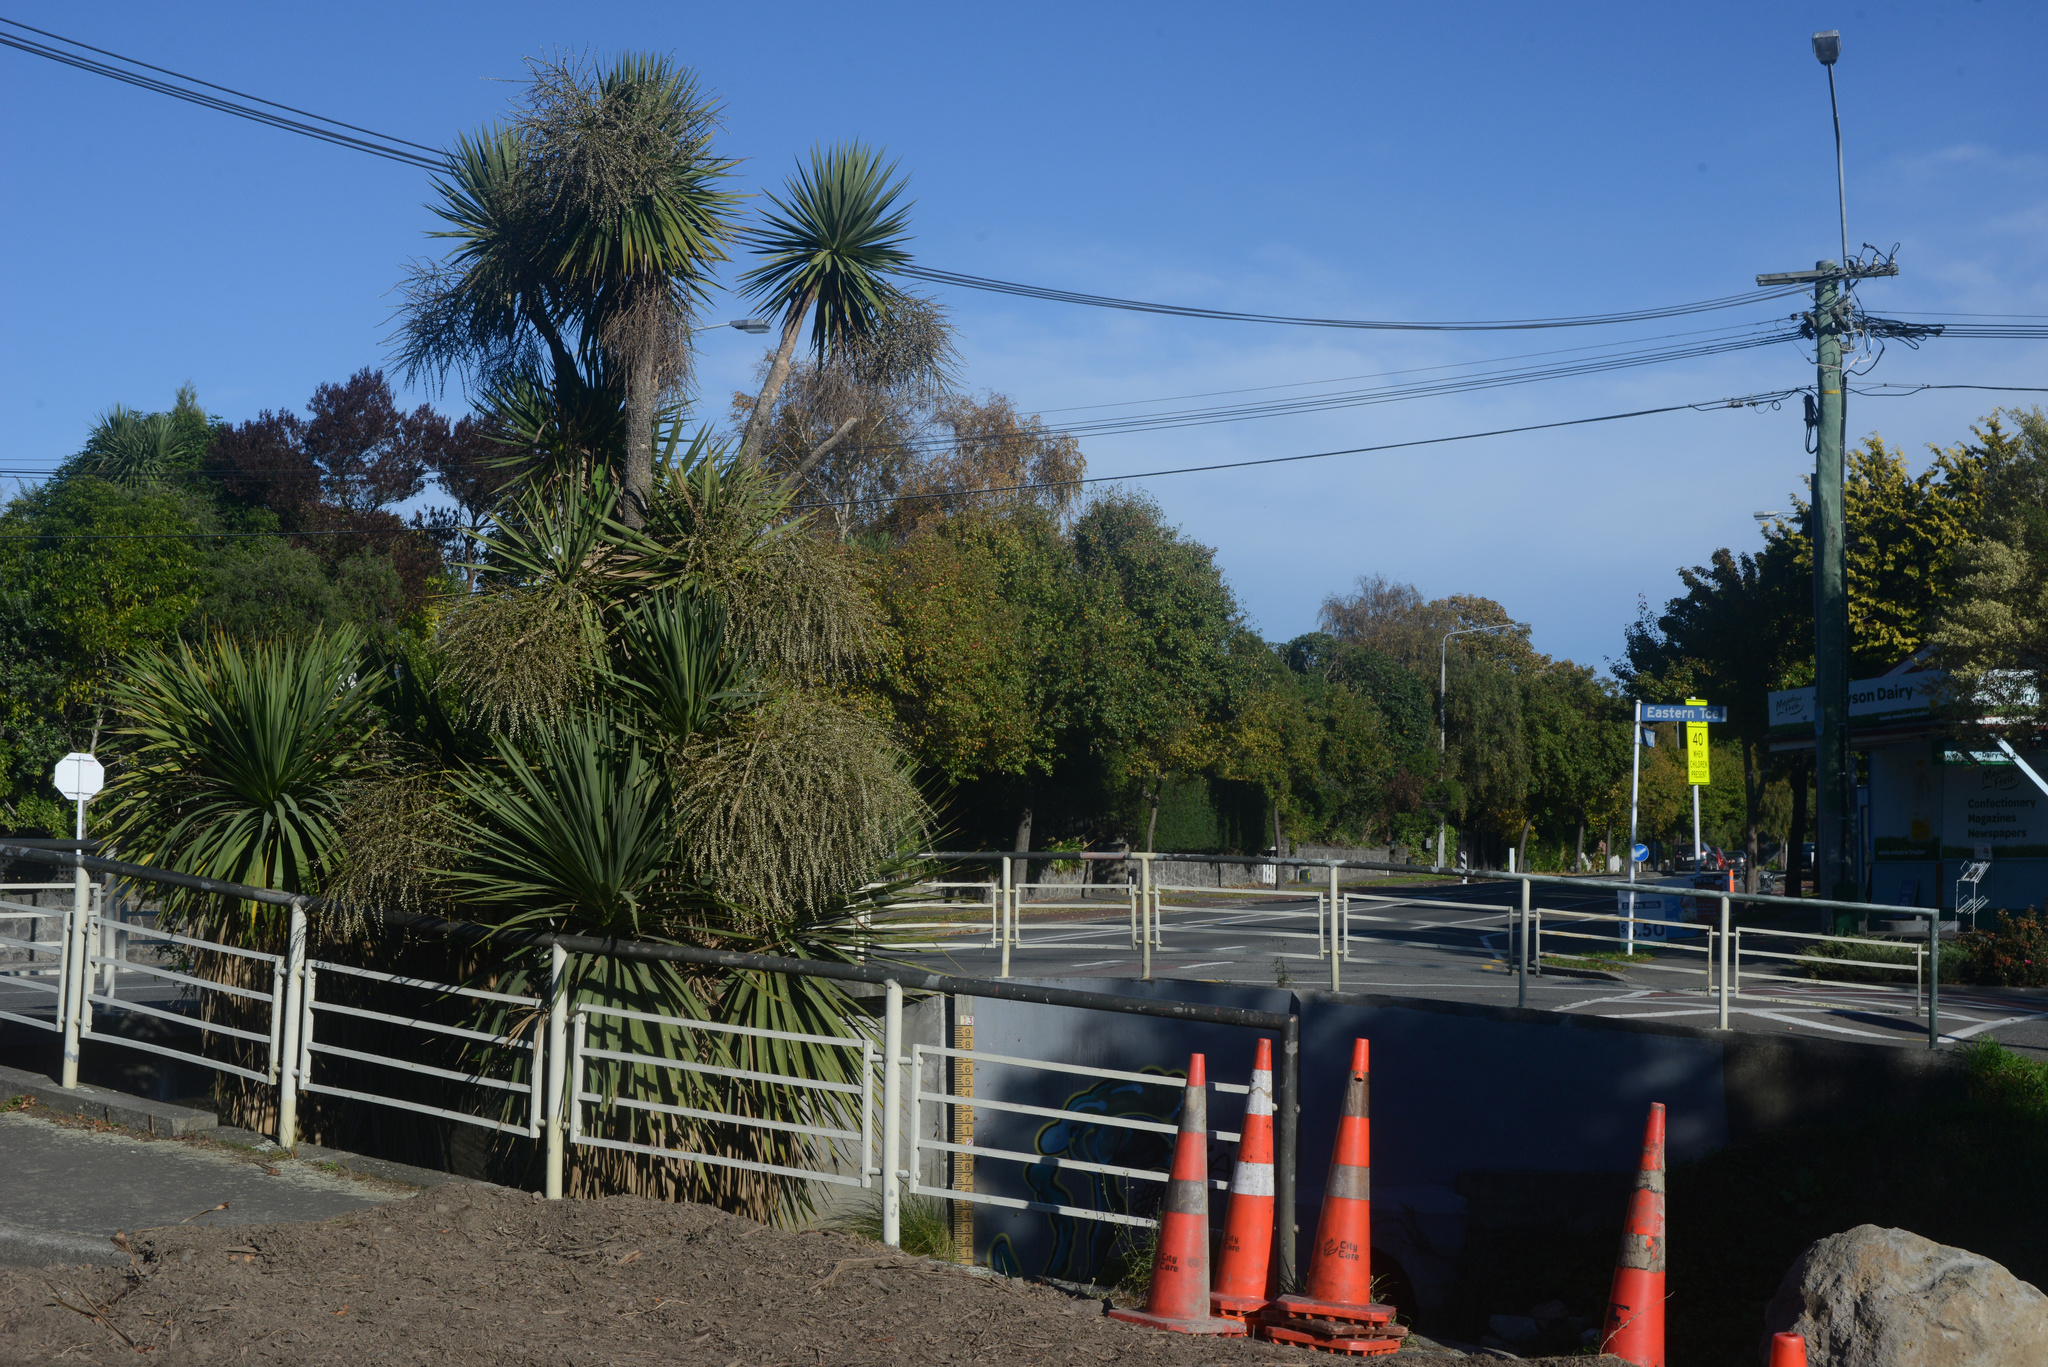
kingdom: Plantae
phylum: Tracheophyta
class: Liliopsida
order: Asparagales
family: Asparagaceae
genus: Cordyline
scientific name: Cordyline australis
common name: Cabbage-palm
